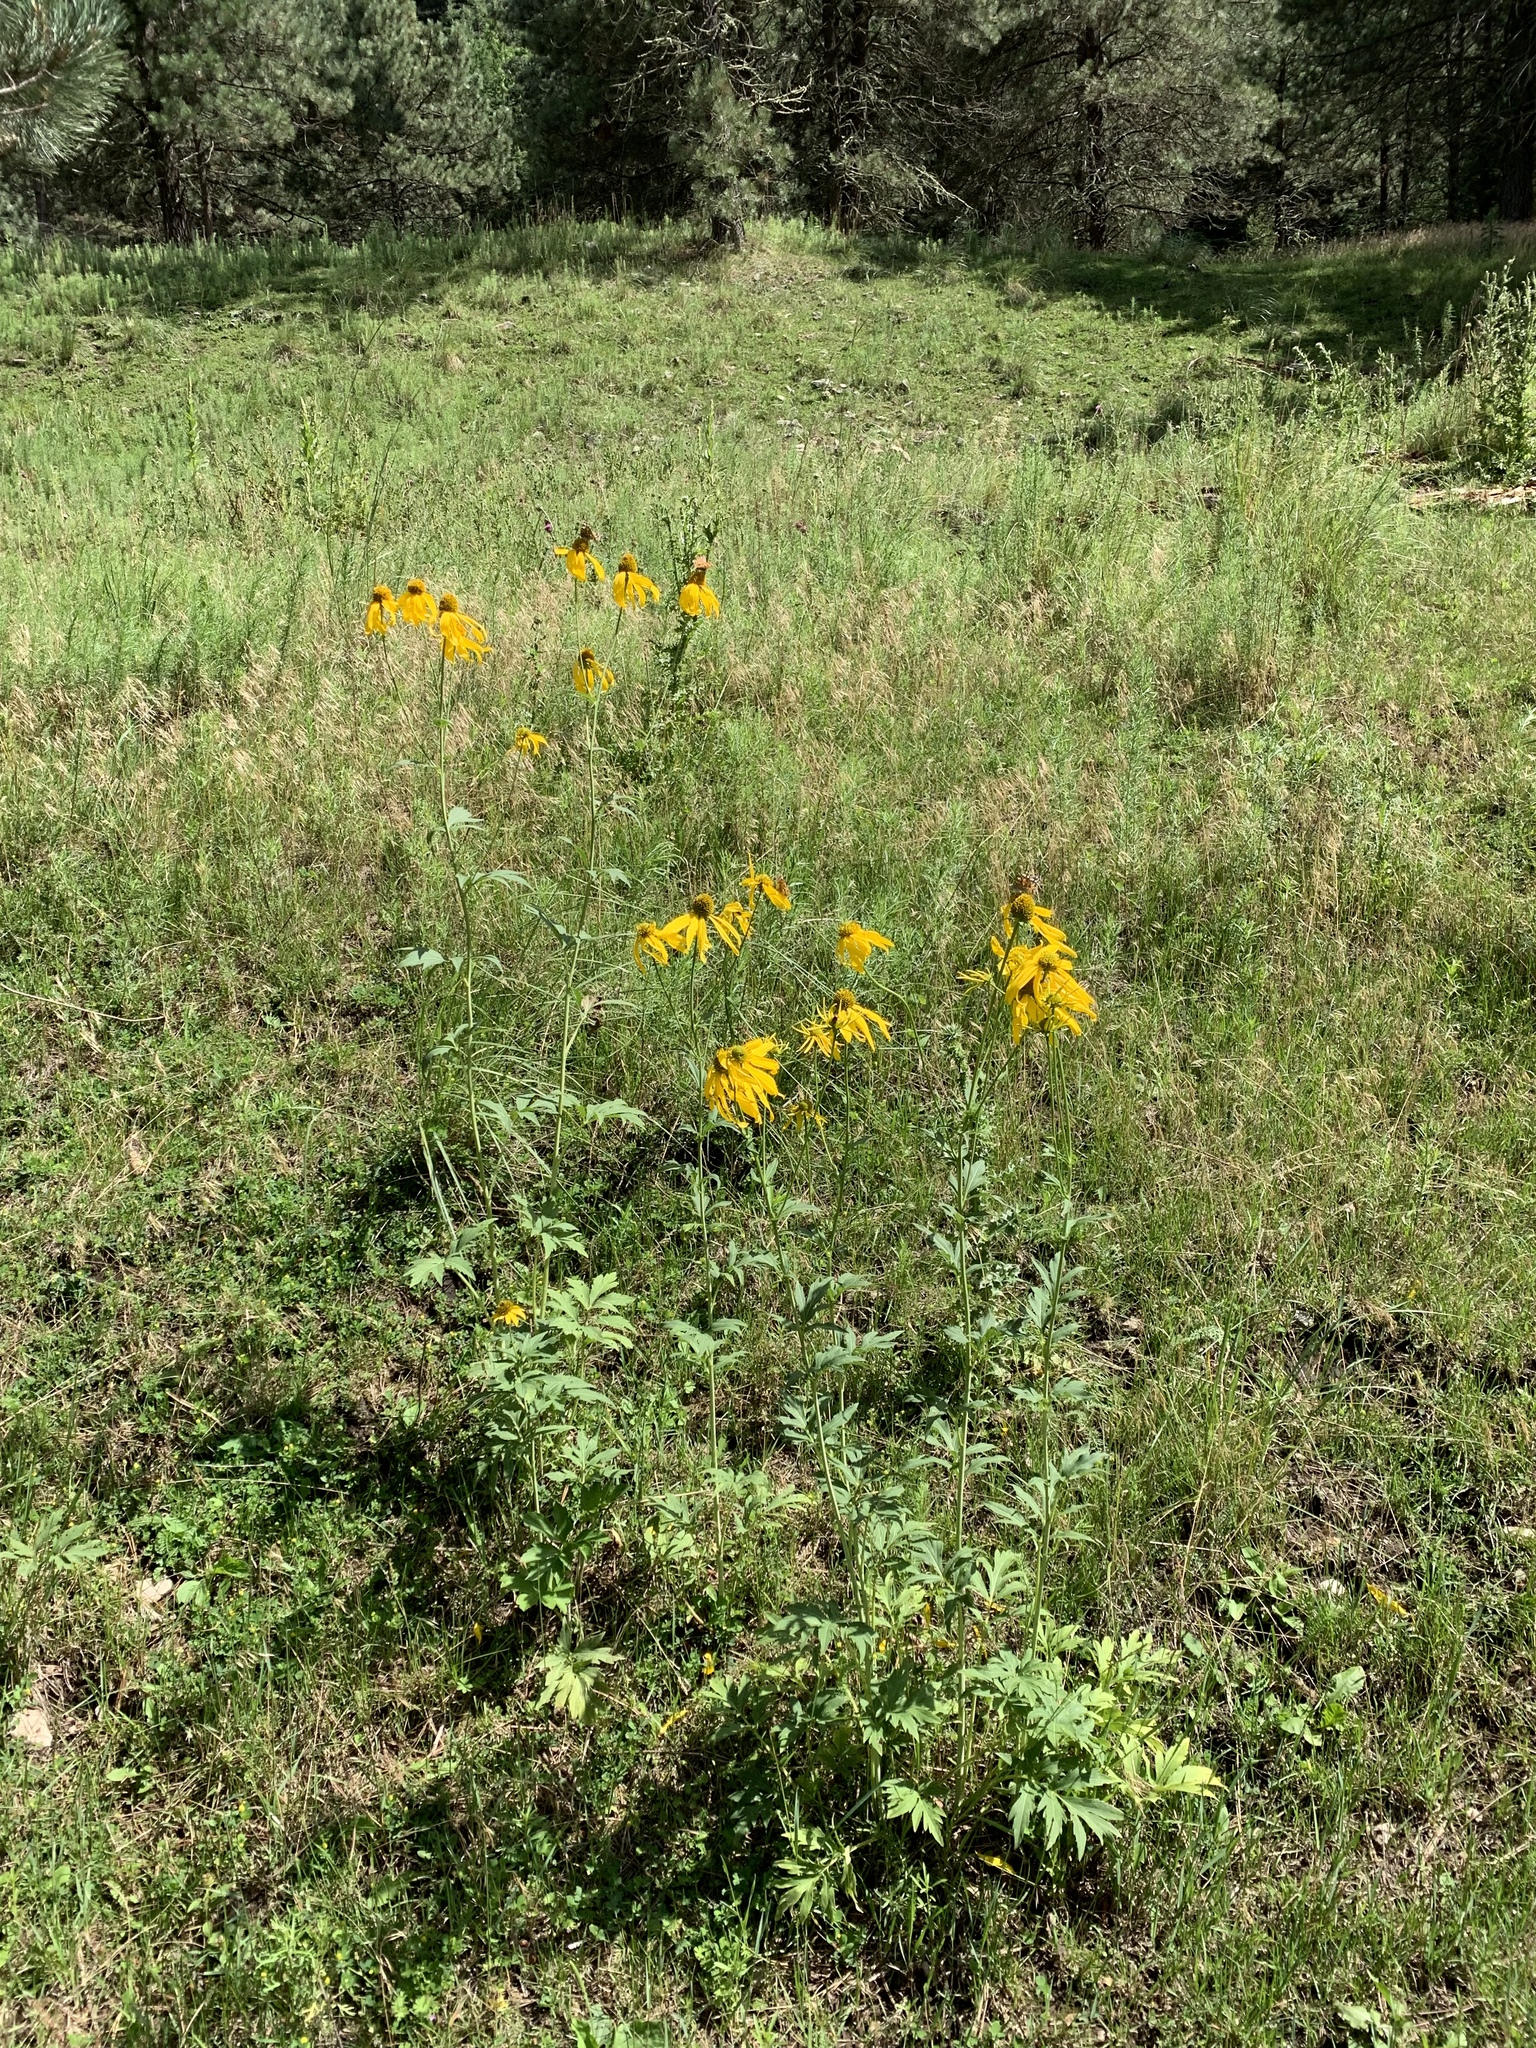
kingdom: Plantae
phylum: Tracheophyta
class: Magnoliopsida
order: Asterales
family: Asteraceae
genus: Rudbeckia
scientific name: Rudbeckia laciniata
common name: Coneflower
